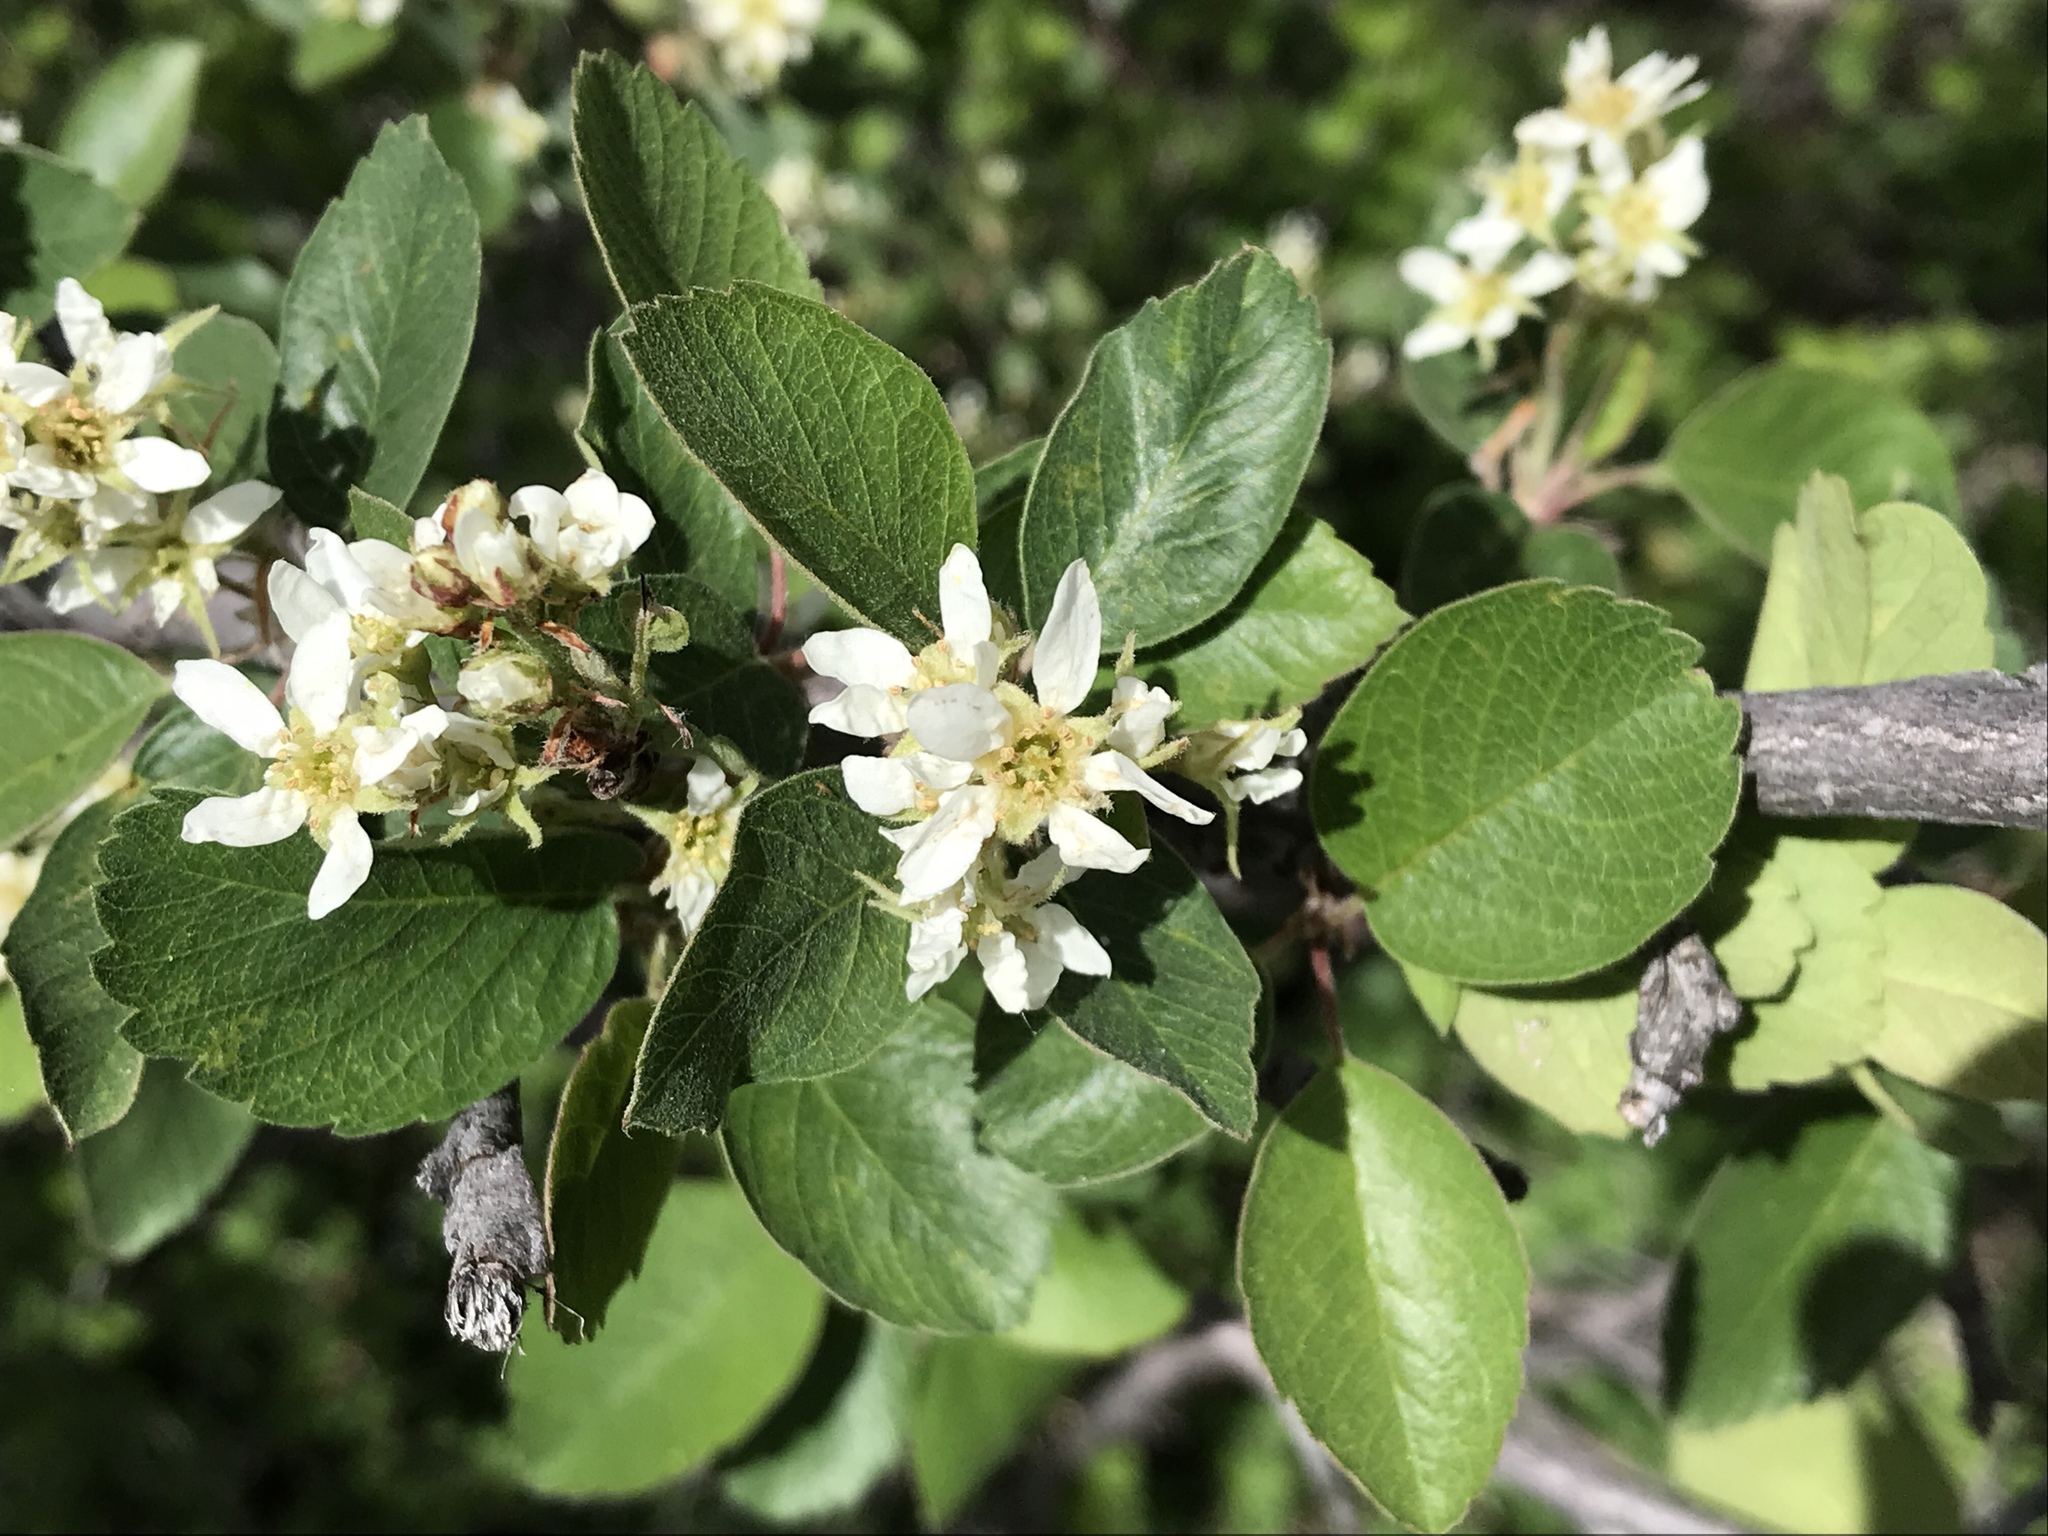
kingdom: Plantae
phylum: Tracheophyta
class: Magnoliopsida
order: Rosales
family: Rosaceae
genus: Amelanchier
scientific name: Amelanchier utahensis
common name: Utah serviceberry
